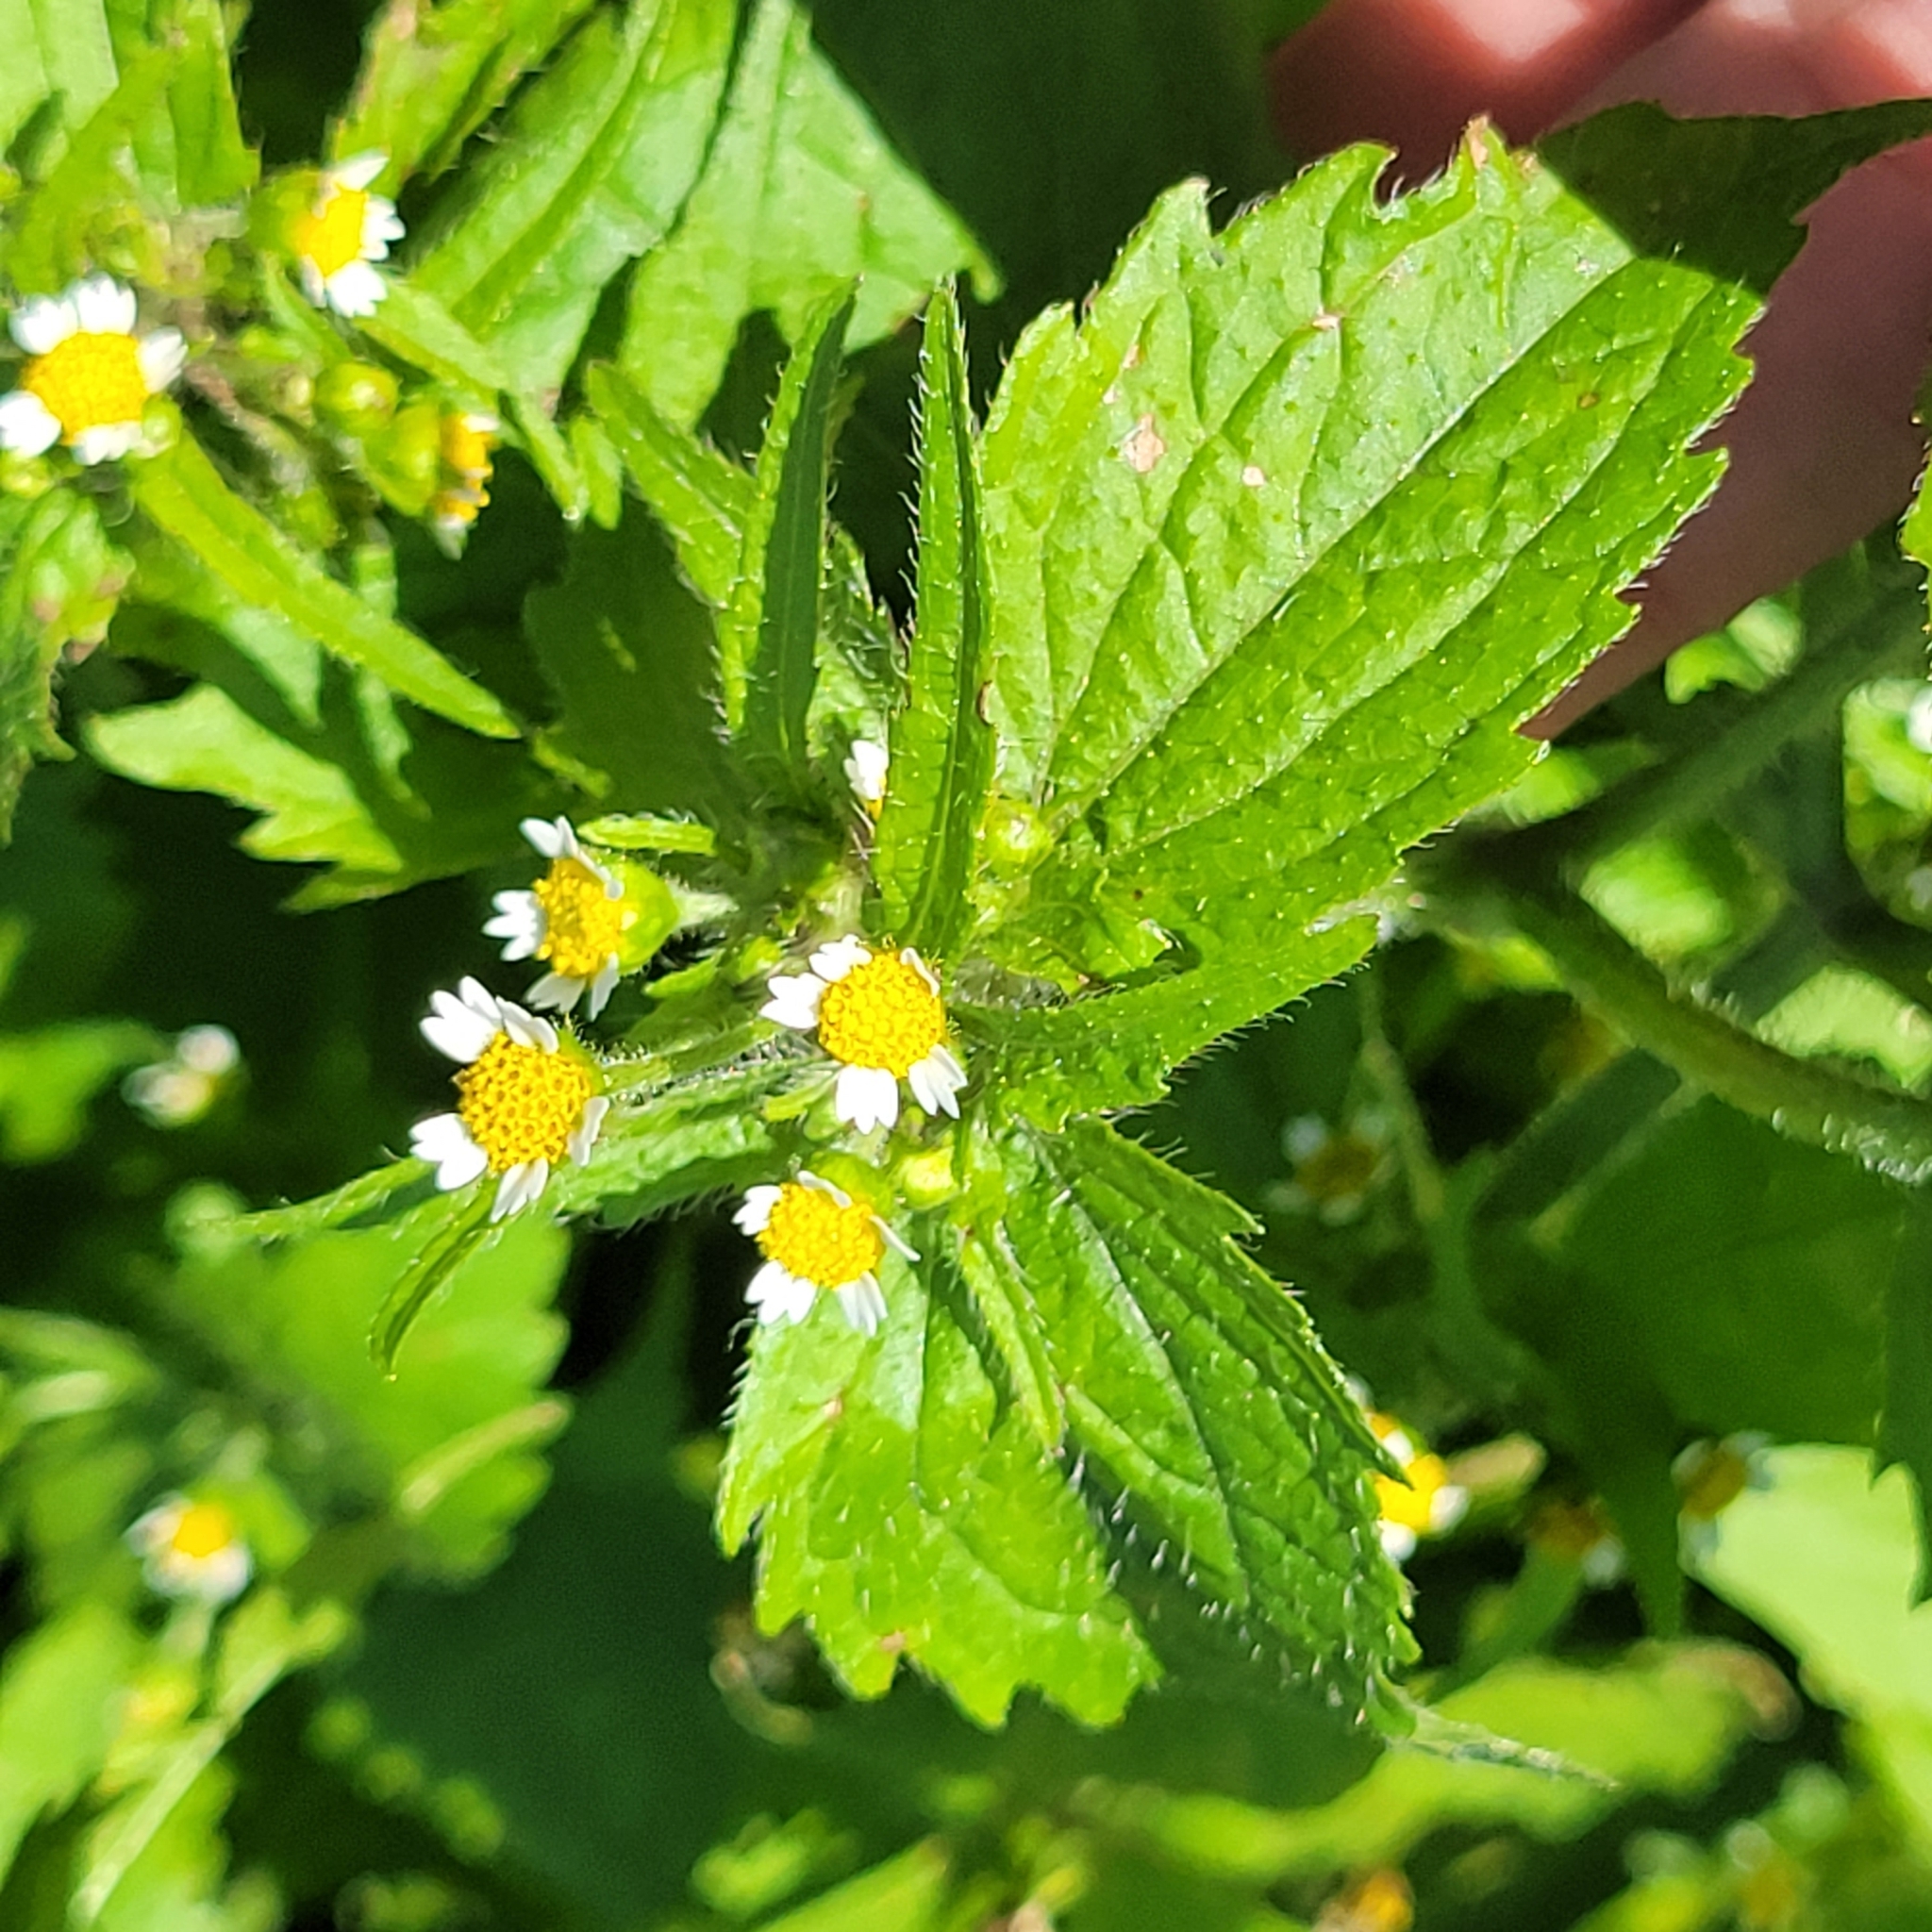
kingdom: Plantae
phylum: Tracheophyta
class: Magnoliopsida
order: Asterales
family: Asteraceae
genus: Galinsoga
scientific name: Galinsoga quadriradiata
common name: Shaggy soldier
